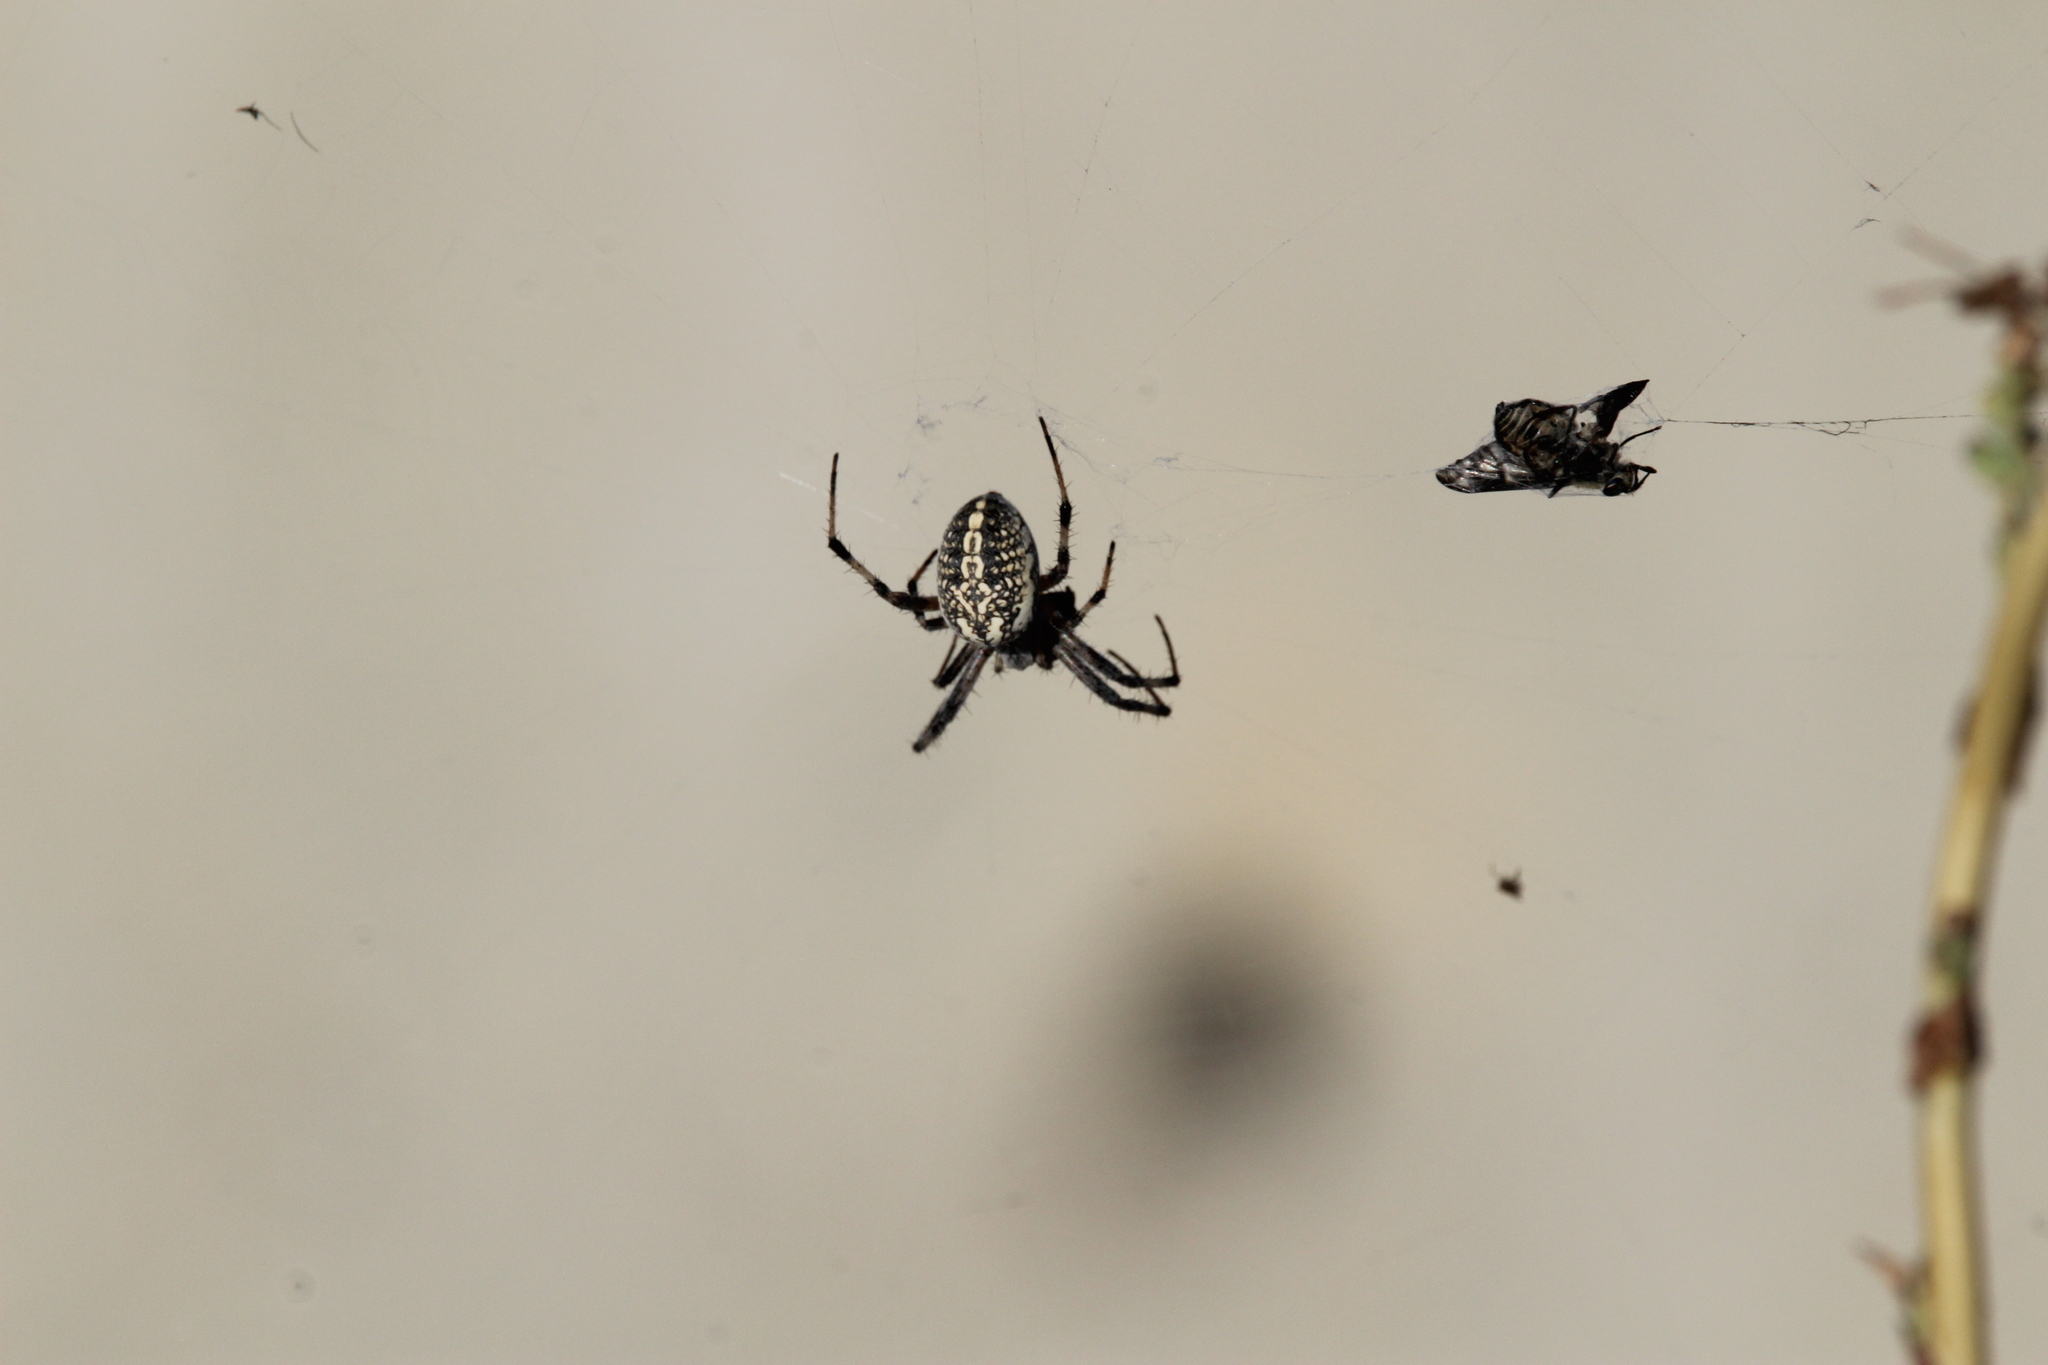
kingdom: Animalia
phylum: Arthropoda
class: Arachnida
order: Araneae
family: Araneidae
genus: Neoscona
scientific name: Neoscona oaxacensis
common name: Orb weavers
